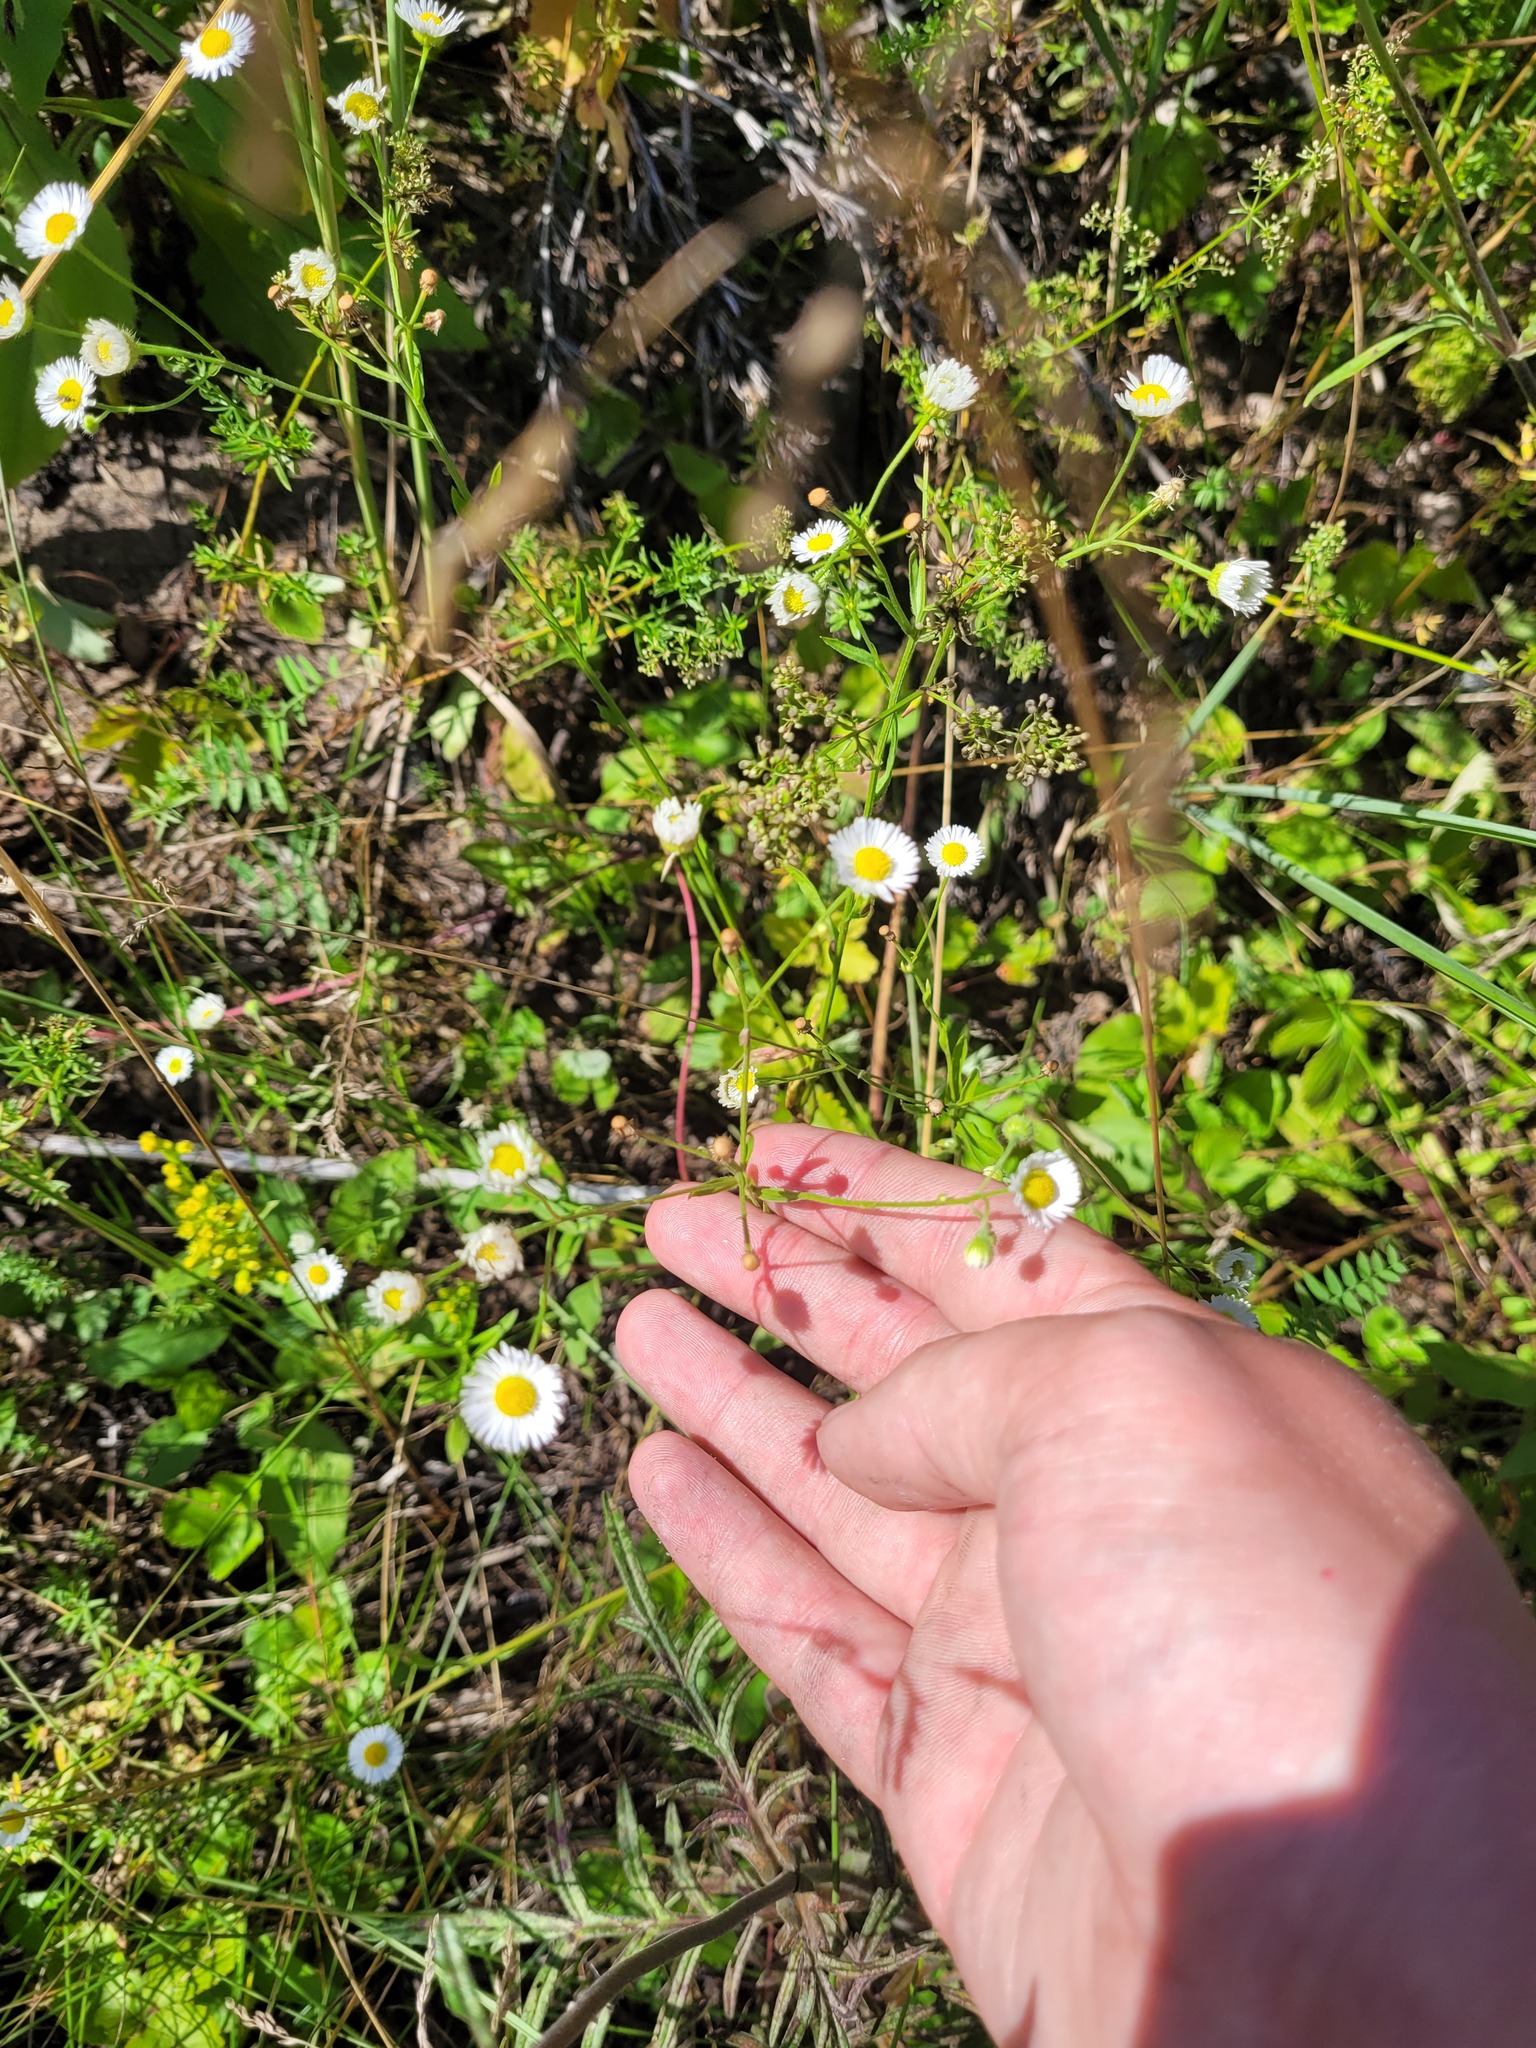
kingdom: Plantae
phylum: Tracheophyta
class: Magnoliopsida
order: Asterales
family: Asteraceae
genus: Erigeron
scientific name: Erigeron annuus
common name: Tall fleabane
